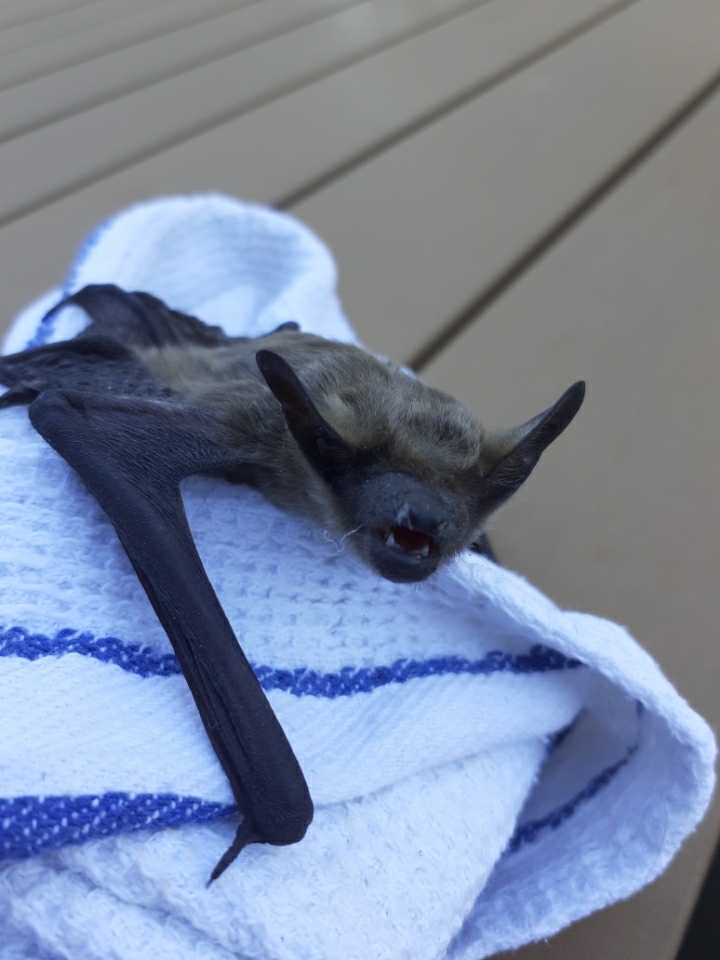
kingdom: Animalia
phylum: Chordata
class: Mammalia
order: Chiroptera
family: Vespertilionidae
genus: Eptesicus
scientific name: Eptesicus serotinus
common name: Serotine
